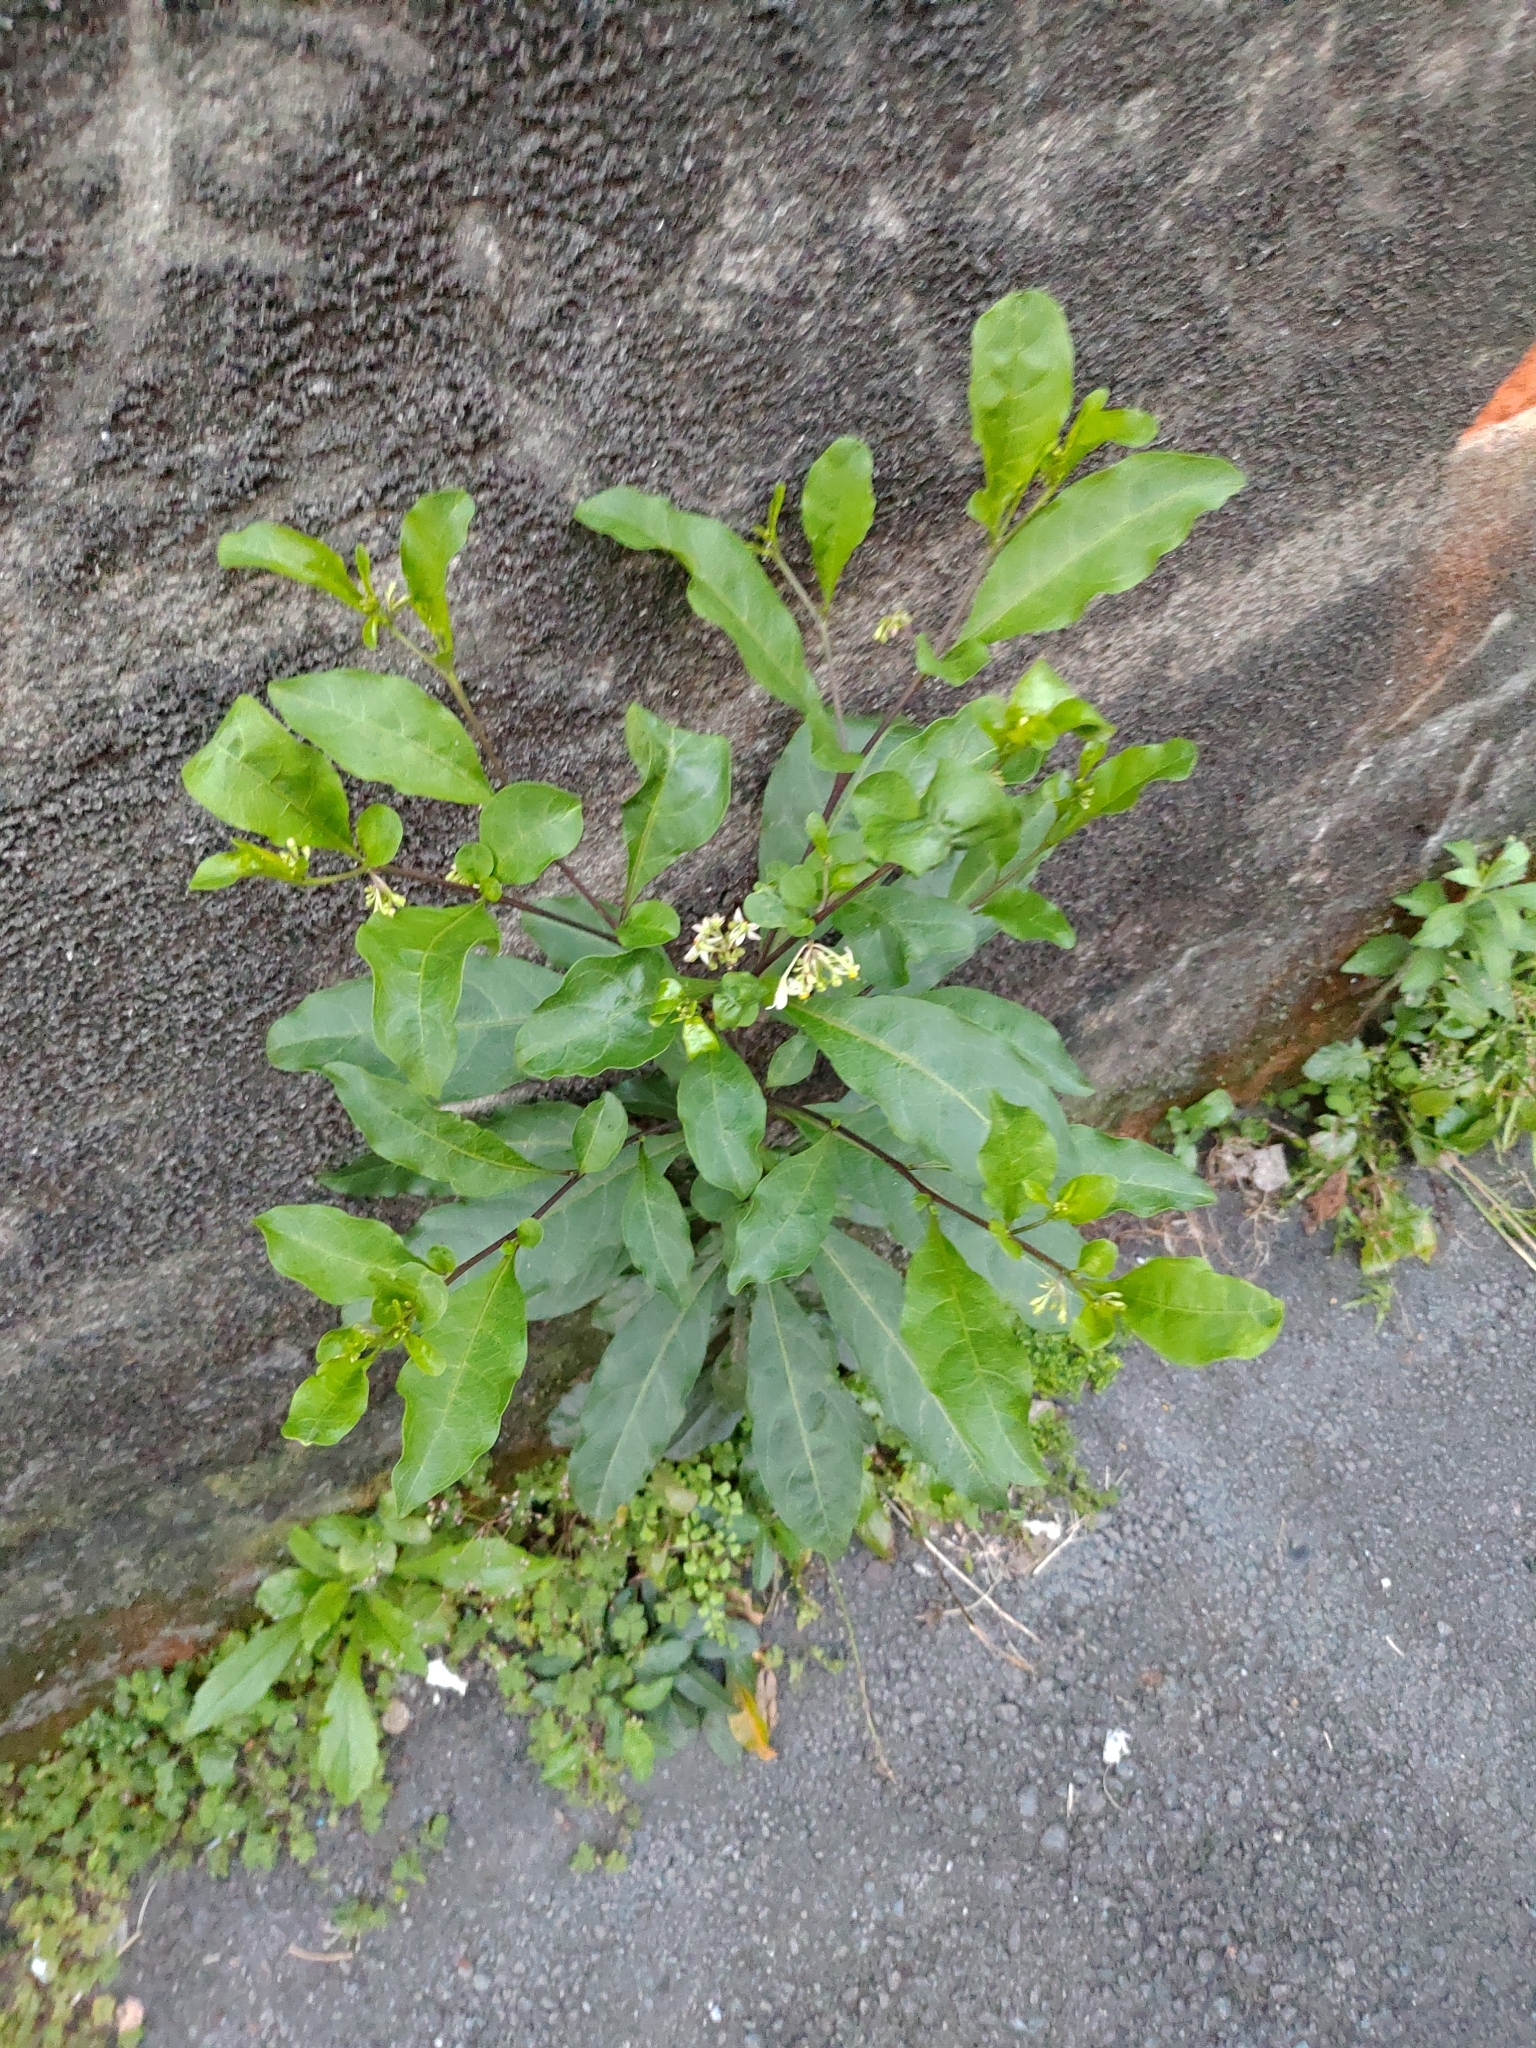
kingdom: Plantae
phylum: Tracheophyta
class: Magnoliopsida
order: Solanales
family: Solanaceae
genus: Solanum
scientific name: Solanum diphyllum
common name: Twoleaf nightshade
